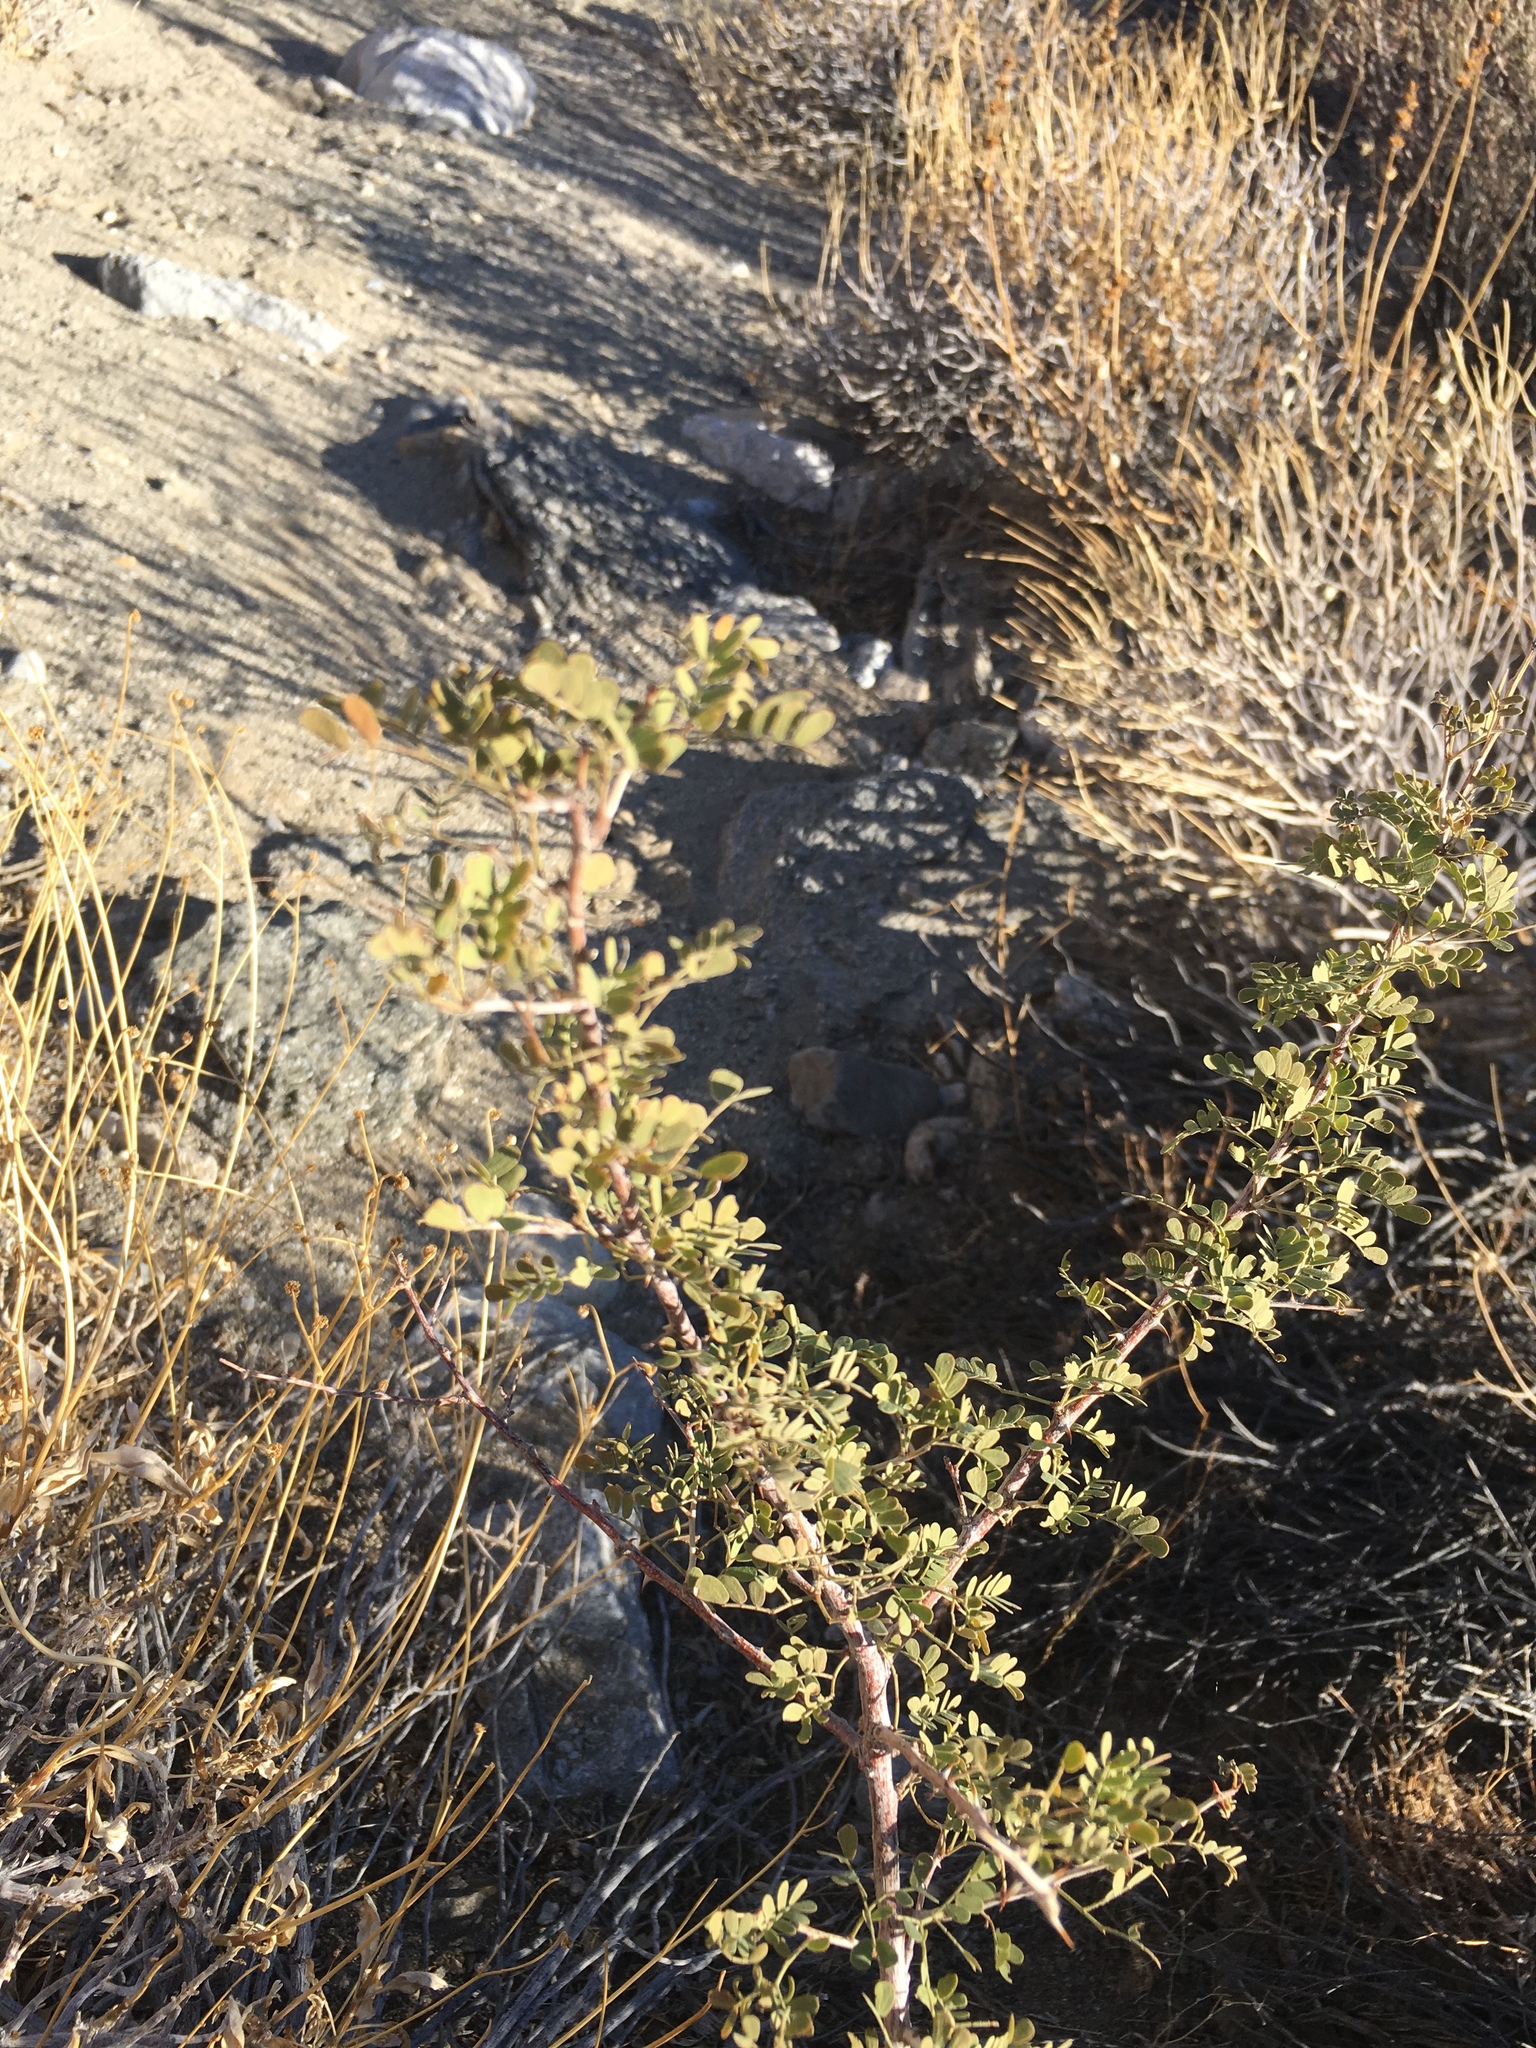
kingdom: Plantae
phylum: Tracheophyta
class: Magnoliopsida
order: Fabales
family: Fabaceae
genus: Senegalia
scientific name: Senegalia greggii
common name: Texas-mimosa
